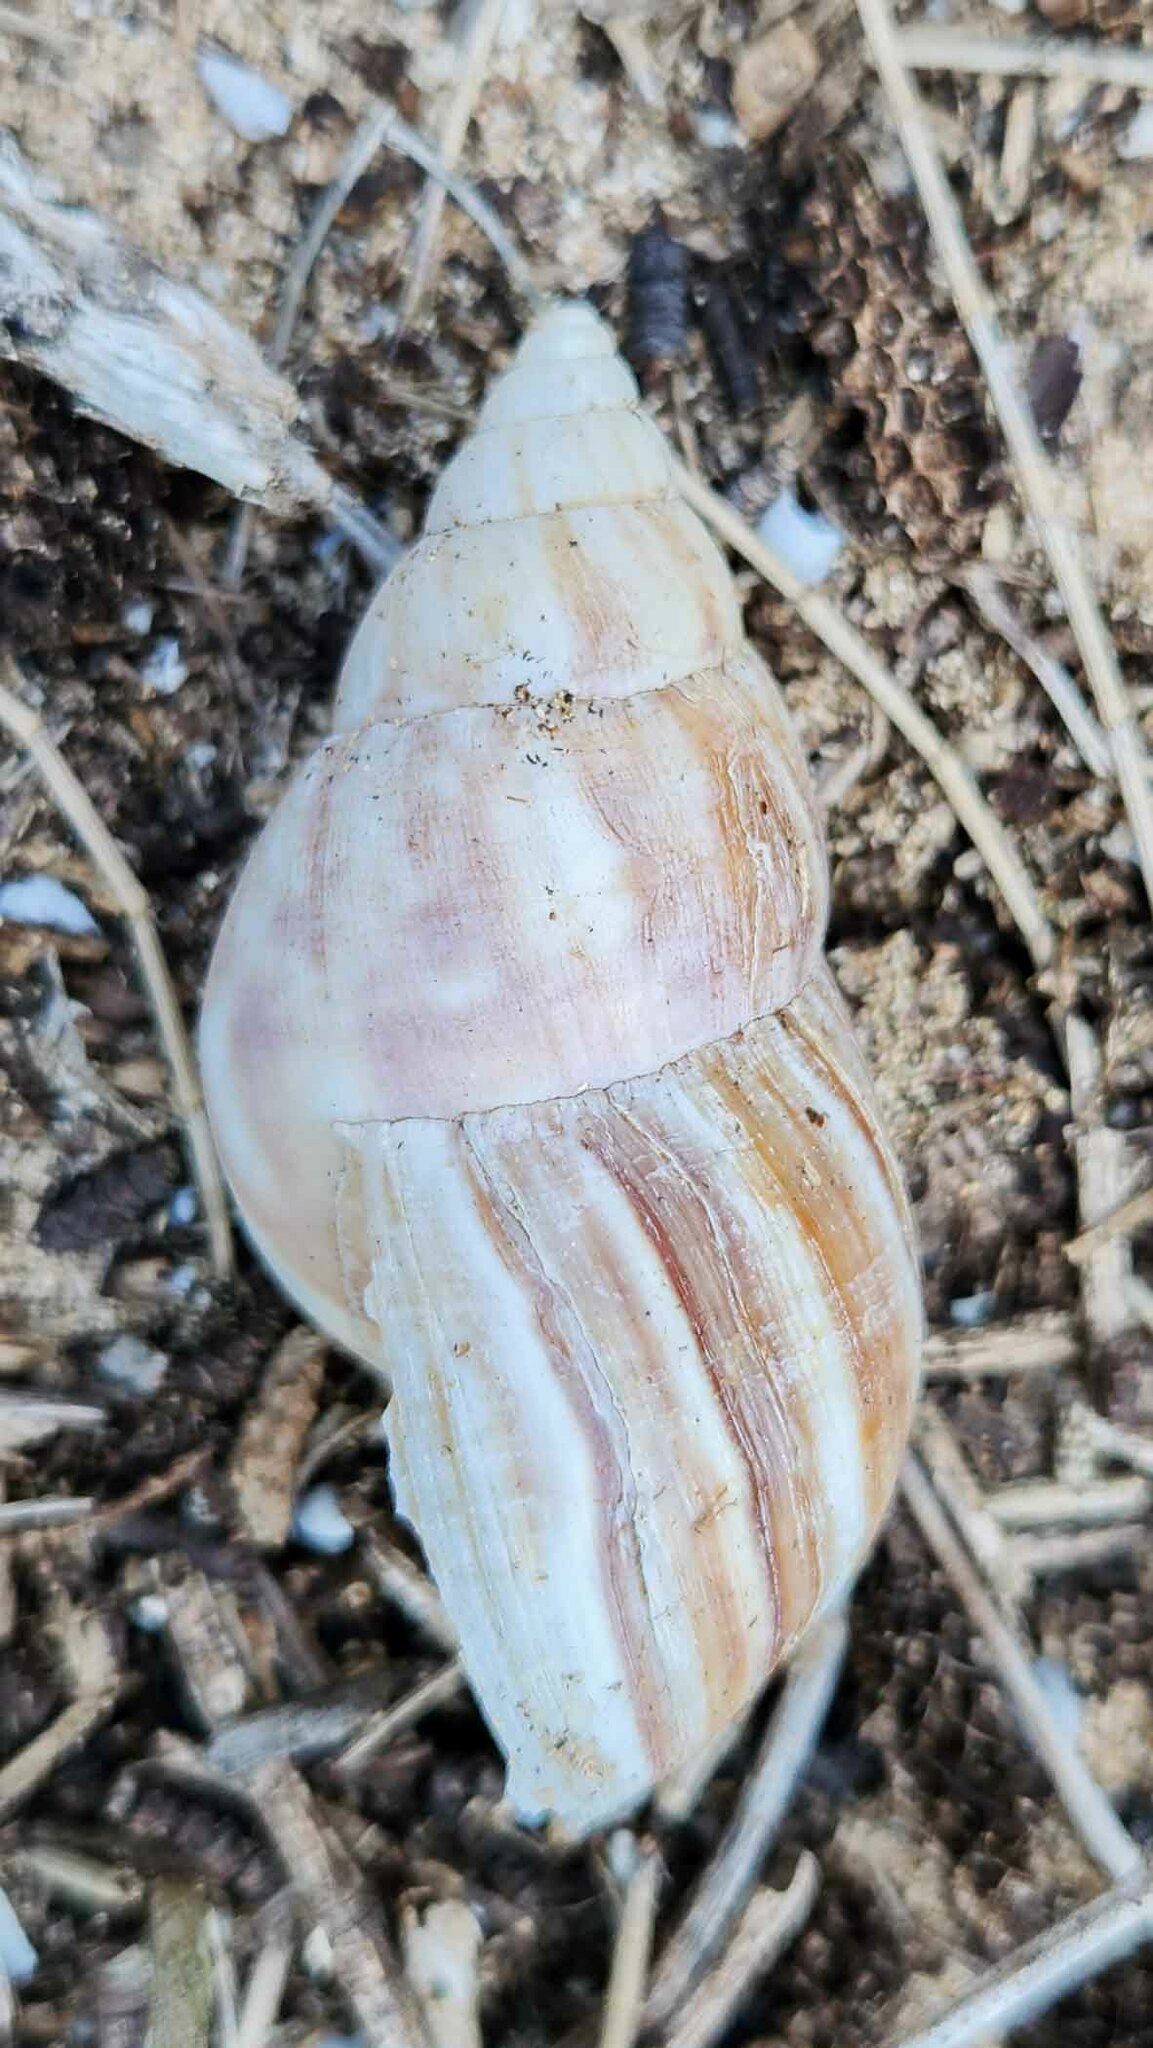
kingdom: Animalia
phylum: Mollusca
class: Gastropoda
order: Stylommatophora
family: Achatinidae
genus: Lissachatina
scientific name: Lissachatina fulica
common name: Giant african snail
